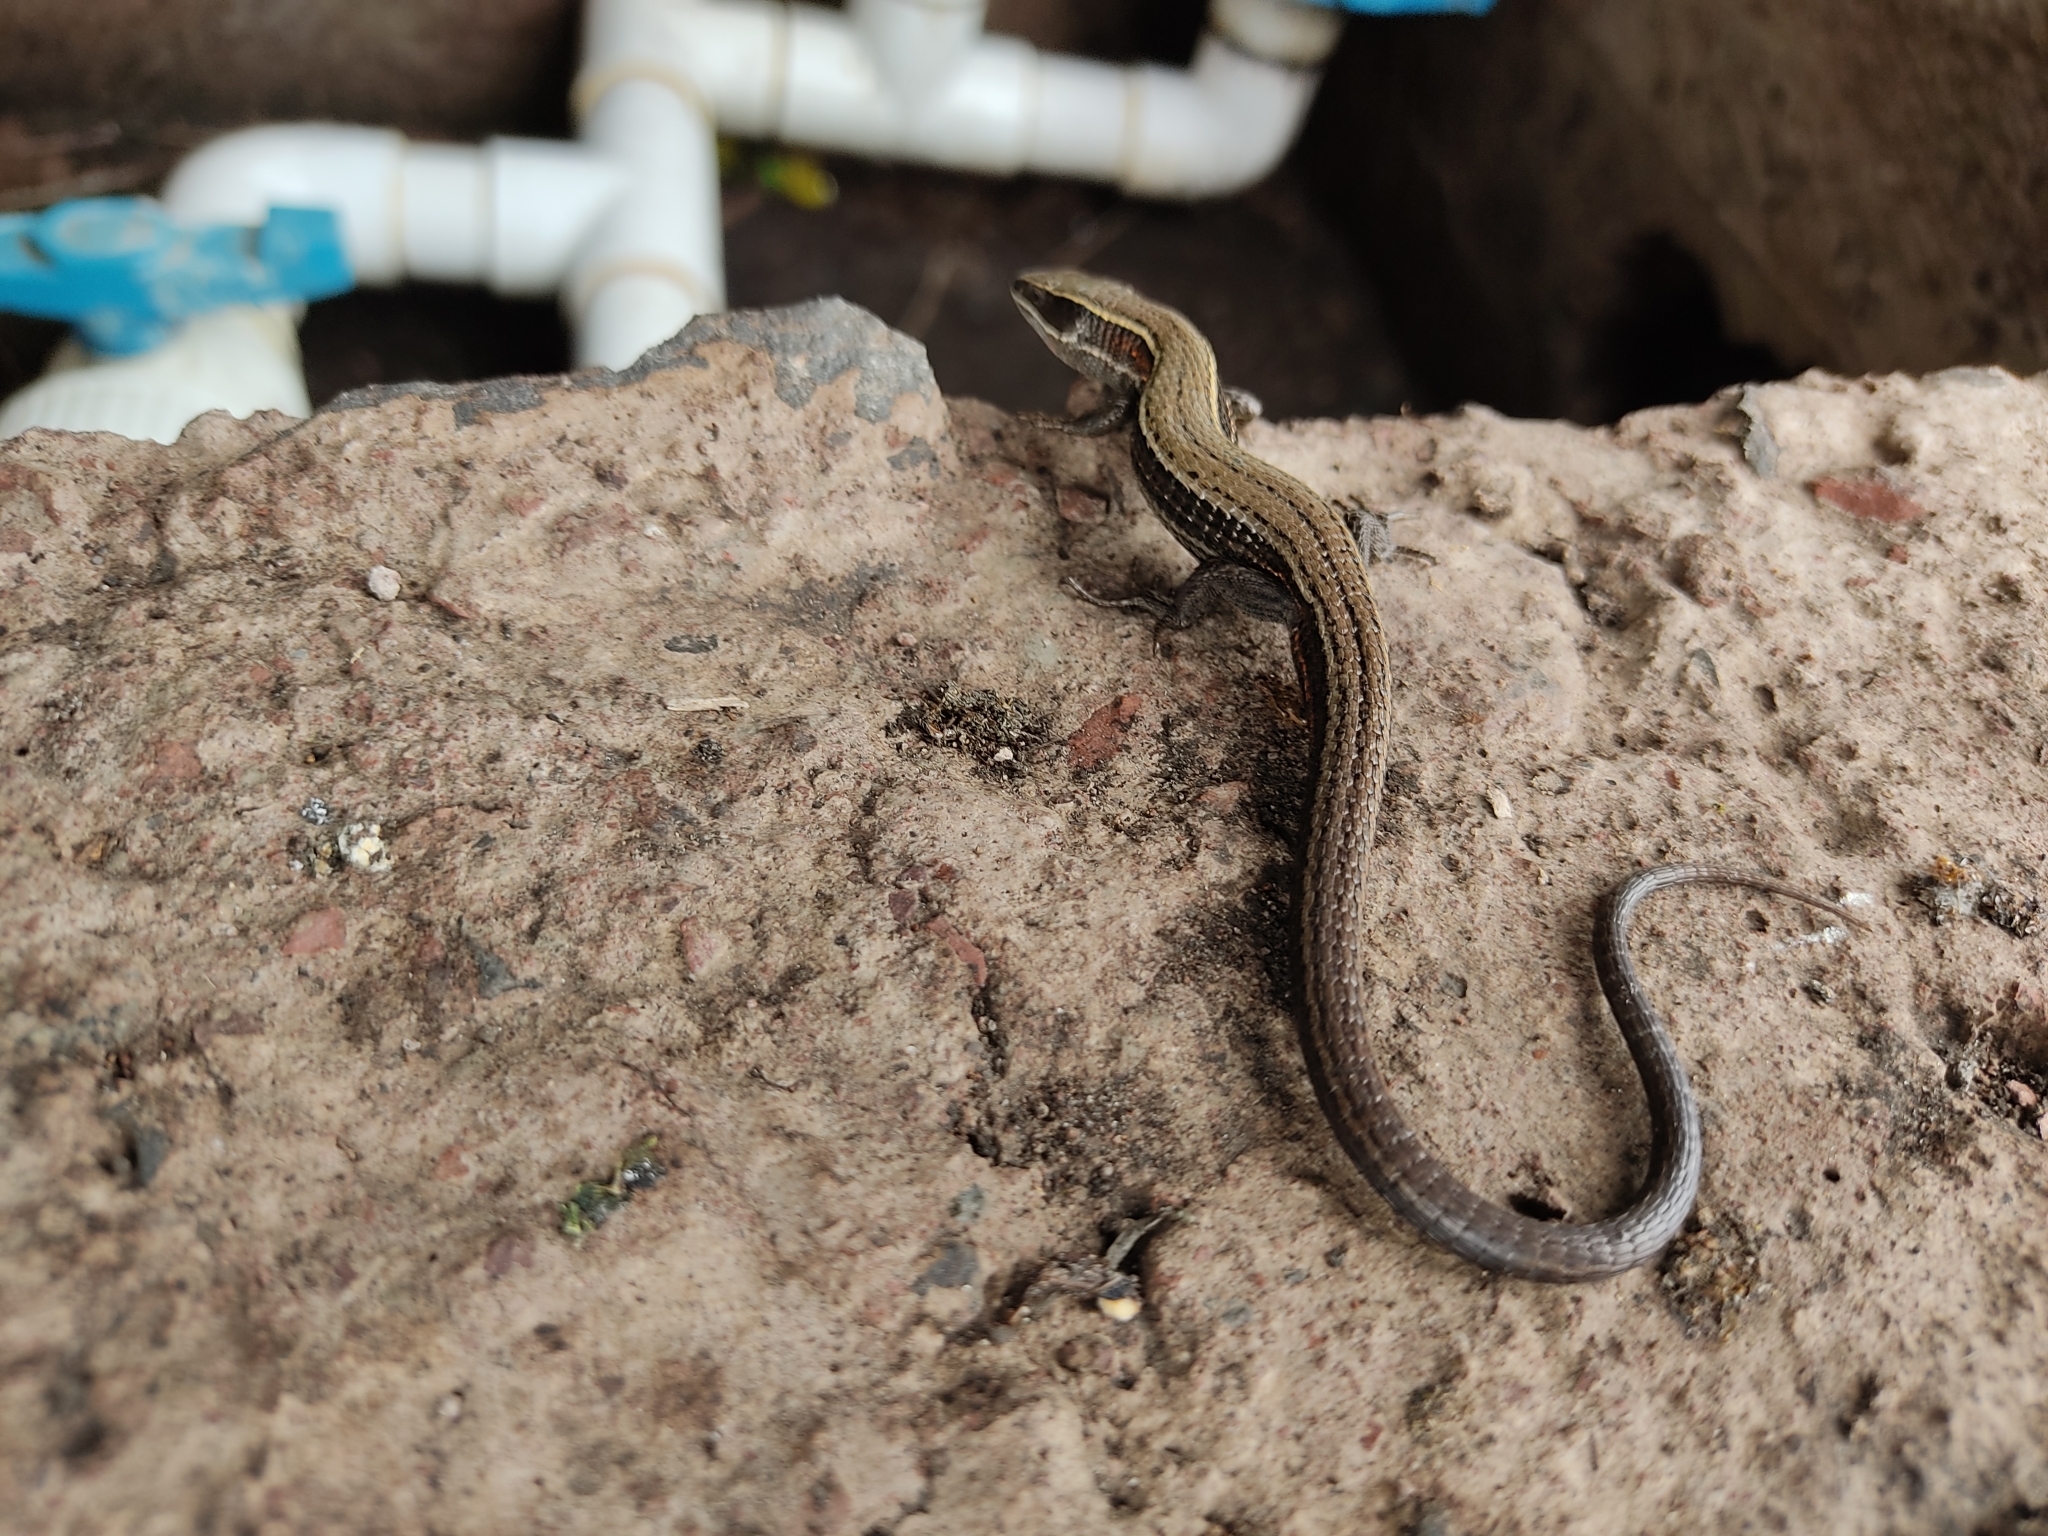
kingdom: Animalia
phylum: Chordata
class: Squamata
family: Gymnophthalmidae
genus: Pholidobolus
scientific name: Pholidobolus montium
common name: Mountain pholidobolus
